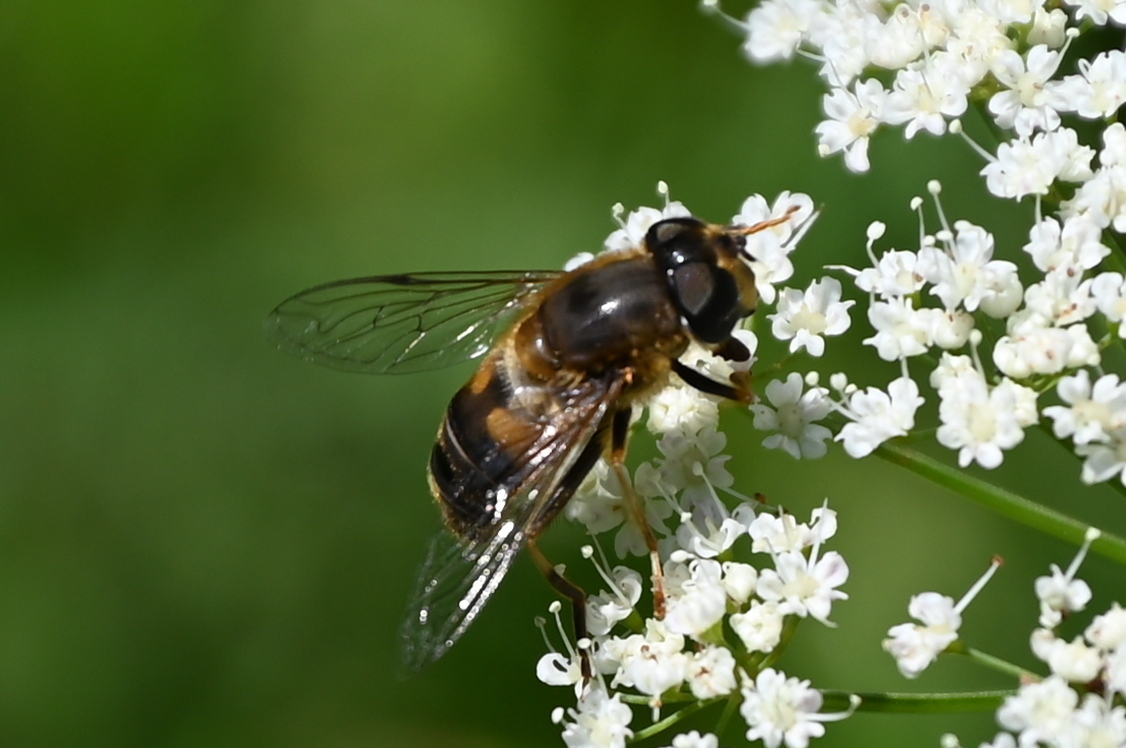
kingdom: Animalia
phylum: Arthropoda
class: Insecta
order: Diptera
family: Syrphidae
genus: Eristalis
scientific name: Eristalis pertinax
